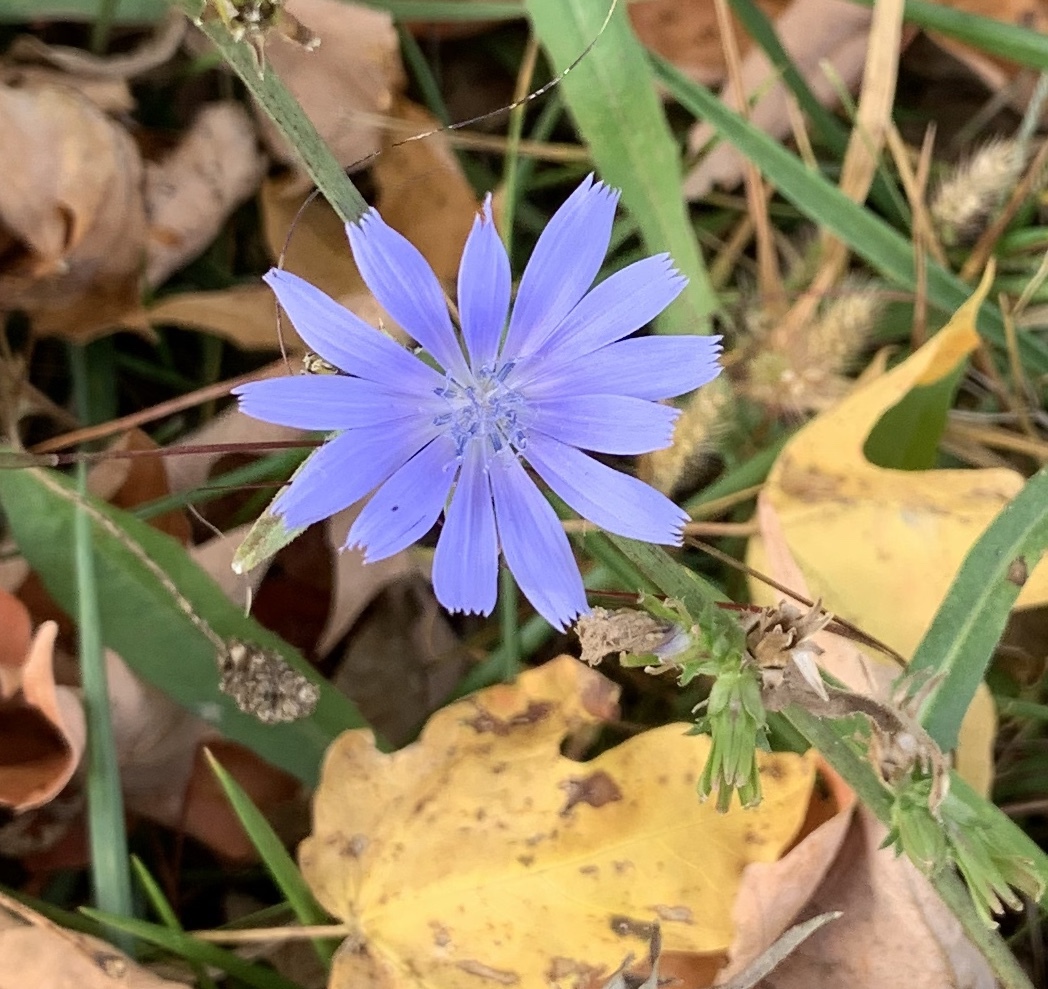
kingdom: Plantae
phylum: Tracheophyta
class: Magnoliopsida
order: Asterales
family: Asteraceae
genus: Cichorium
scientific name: Cichorium intybus
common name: Chicory
